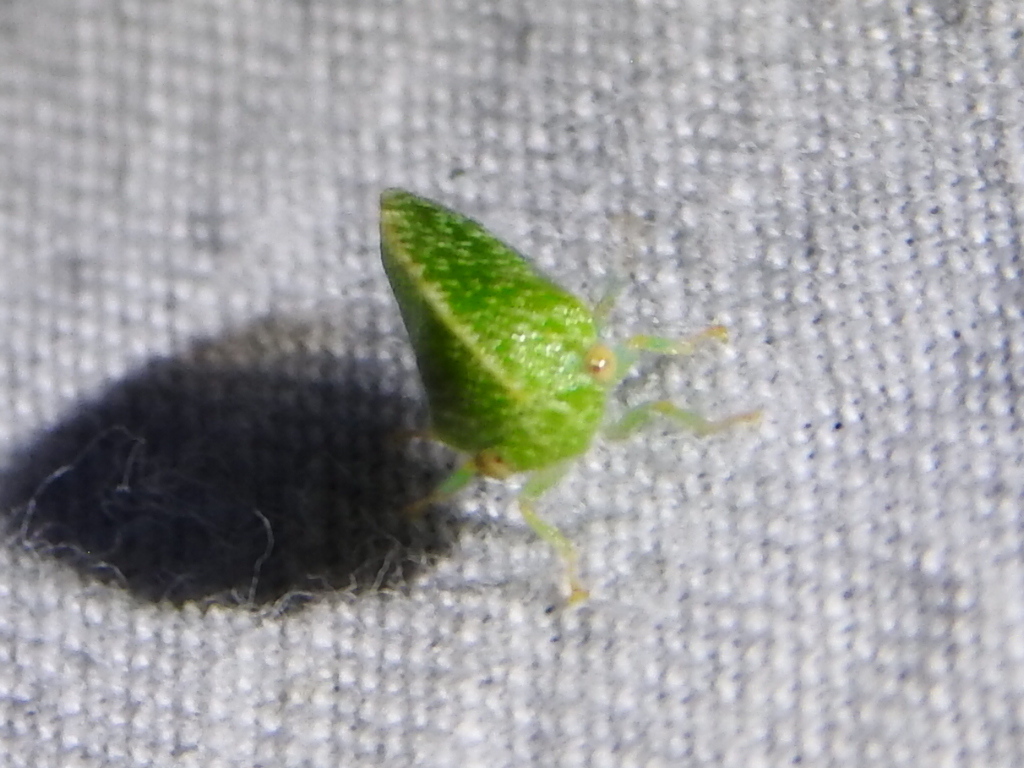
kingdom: Animalia
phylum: Arthropoda
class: Insecta
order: Hemiptera
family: Membracidae
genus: Cyrtolobus
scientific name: Cyrtolobus dixianus
